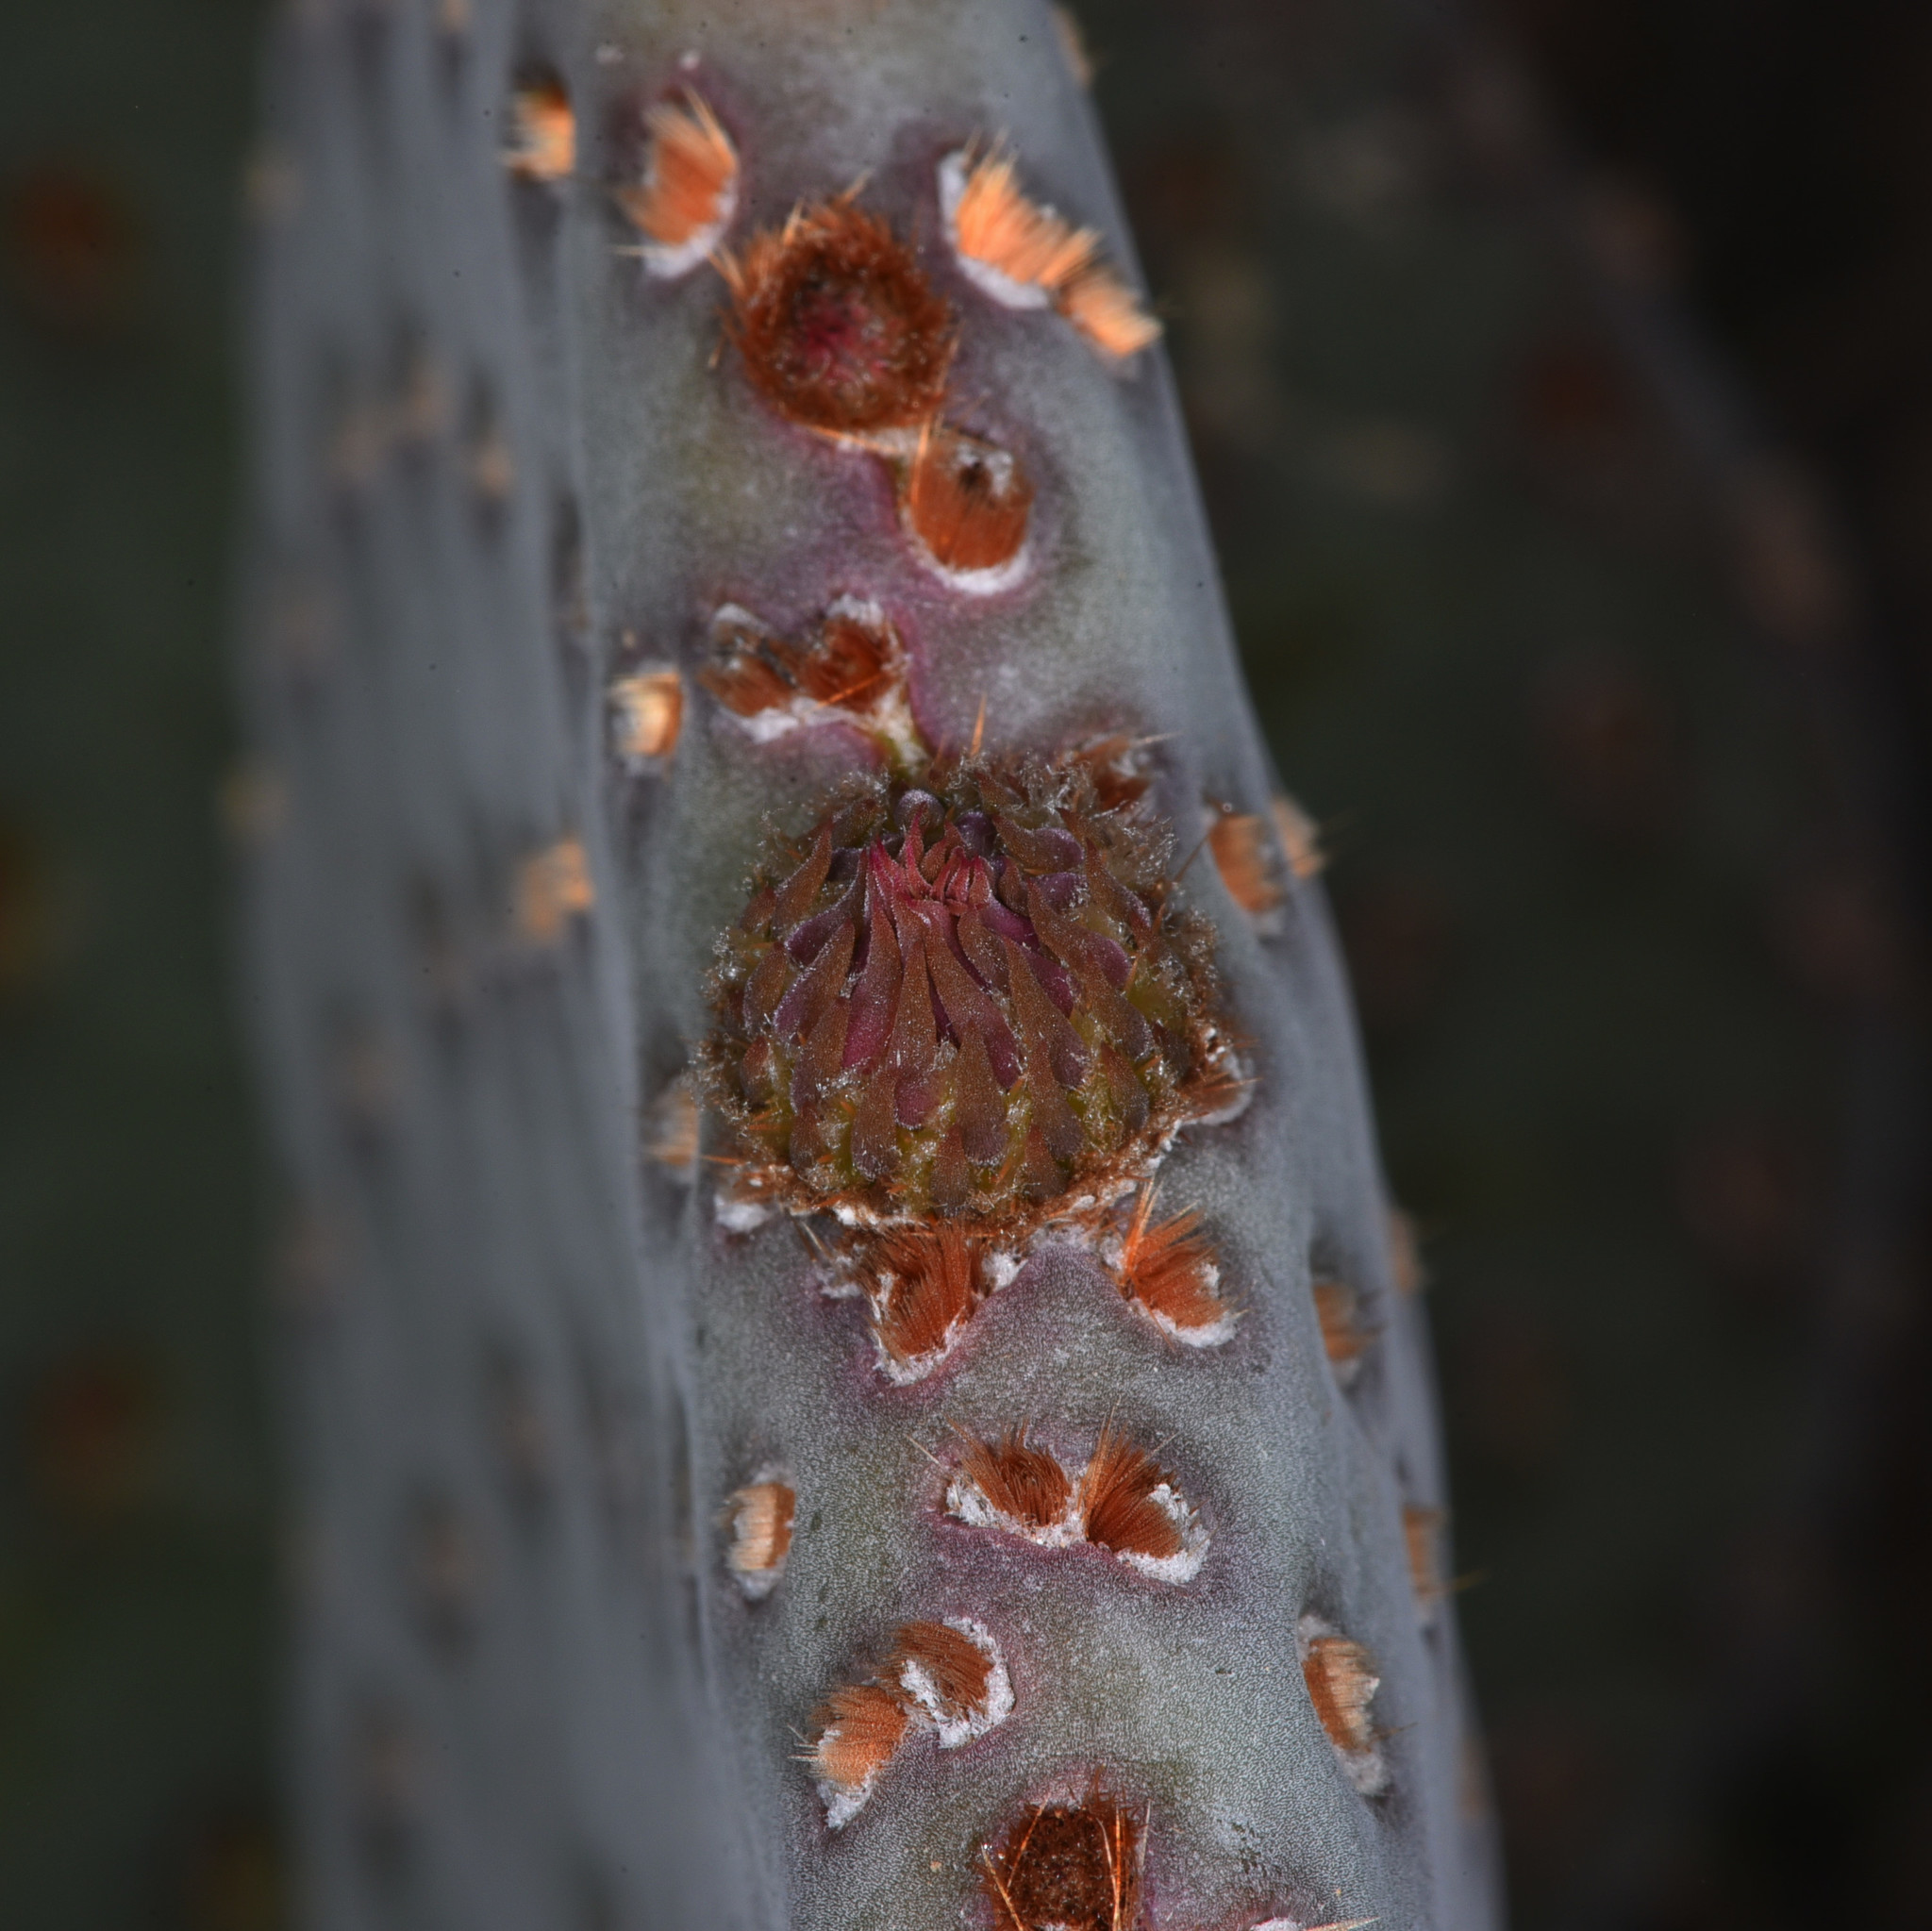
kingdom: Plantae
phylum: Tracheophyta
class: Magnoliopsida
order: Caryophyllales
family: Cactaceae
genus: Opuntia
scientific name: Opuntia basilaris
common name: Beavertail prickly-pear
